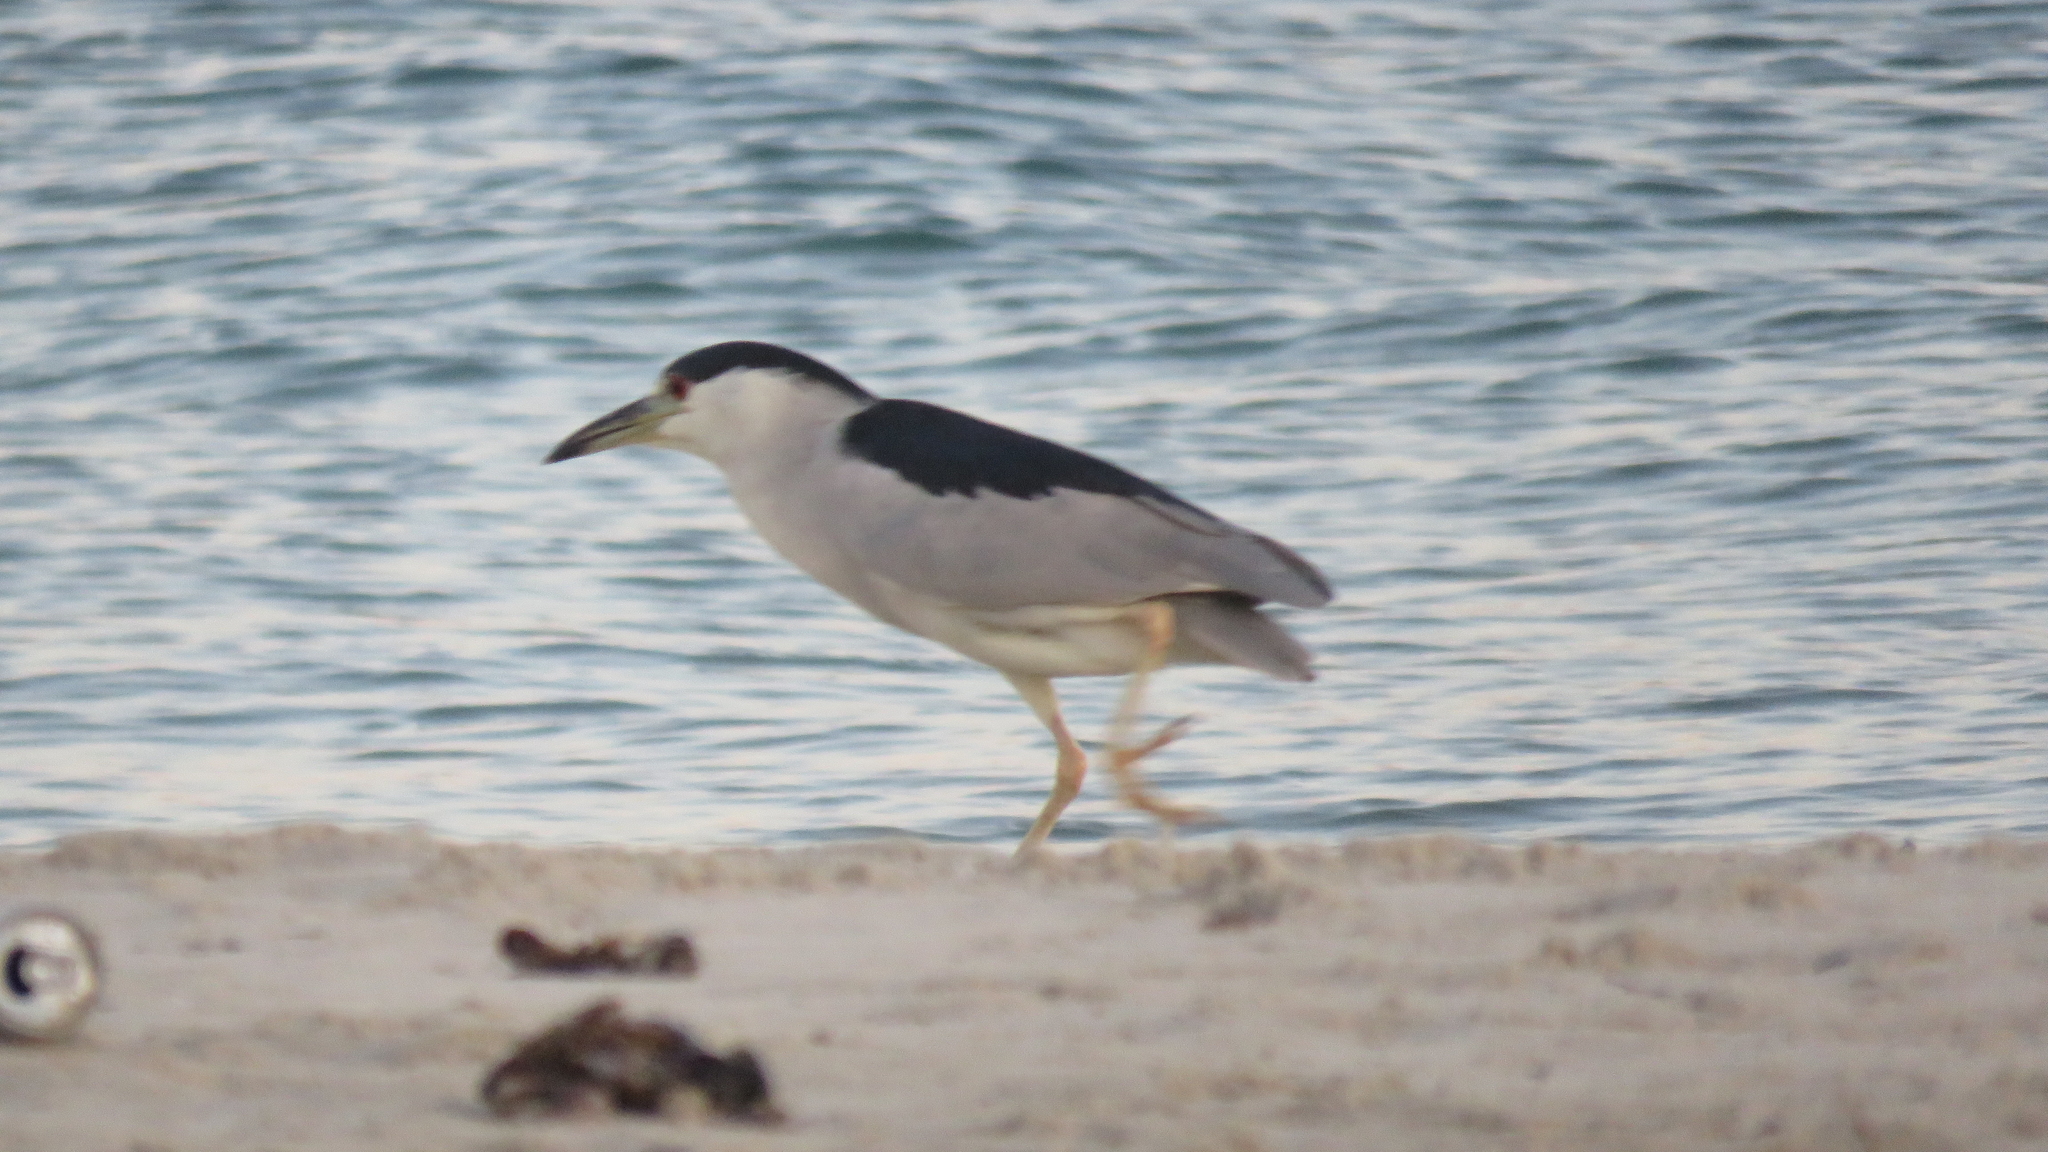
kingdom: Animalia
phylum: Chordata
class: Aves
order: Pelecaniformes
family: Ardeidae
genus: Nycticorax
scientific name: Nycticorax nycticorax
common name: Black-crowned night heron
